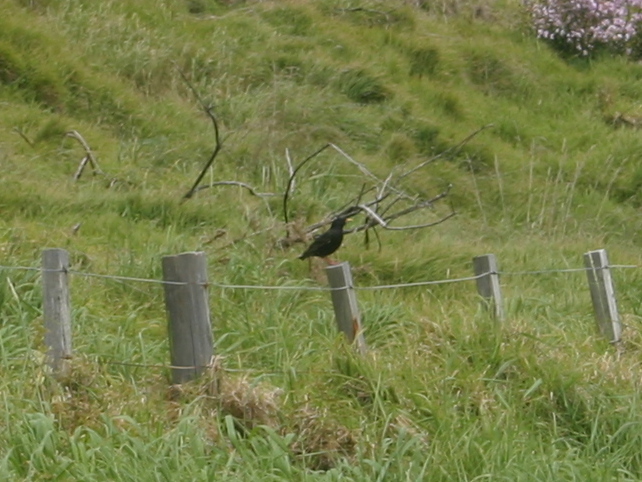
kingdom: Animalia
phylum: Chordata
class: Aves
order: Passeriformes
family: Sturnidae
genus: Sturnus
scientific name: Sturnus vulgaris
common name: Common starling
